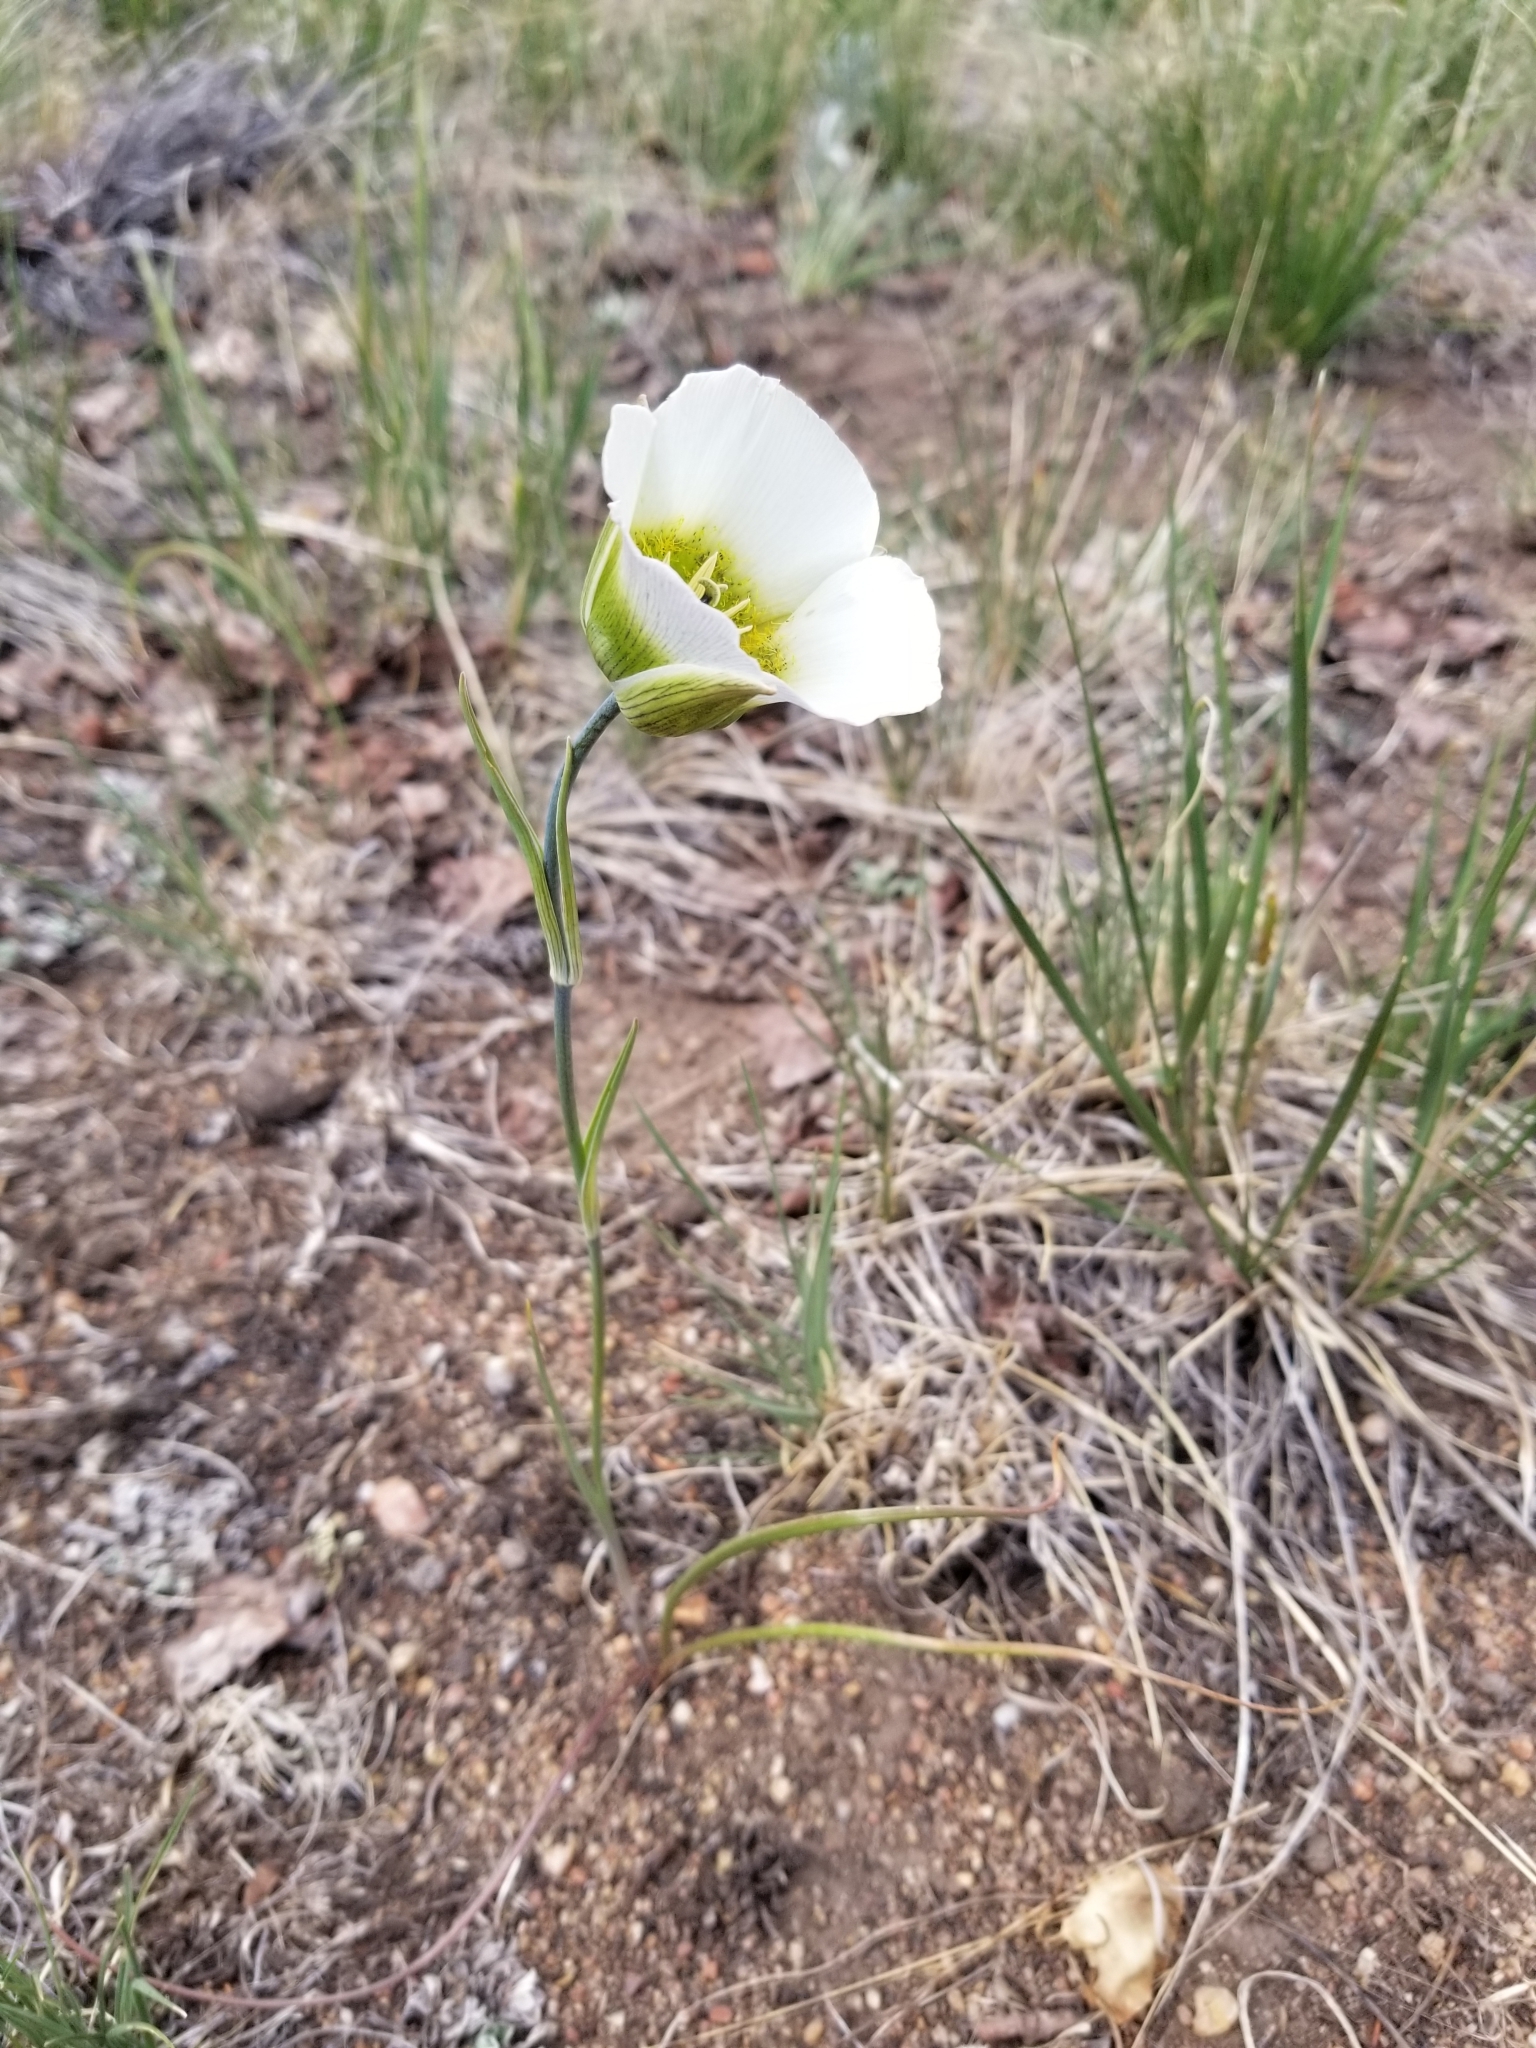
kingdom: Plantae
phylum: Tracheophyta
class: Liliopsida
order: Liliales
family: Liliaceae
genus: Calochortus
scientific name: Calochortus gunnisonii
